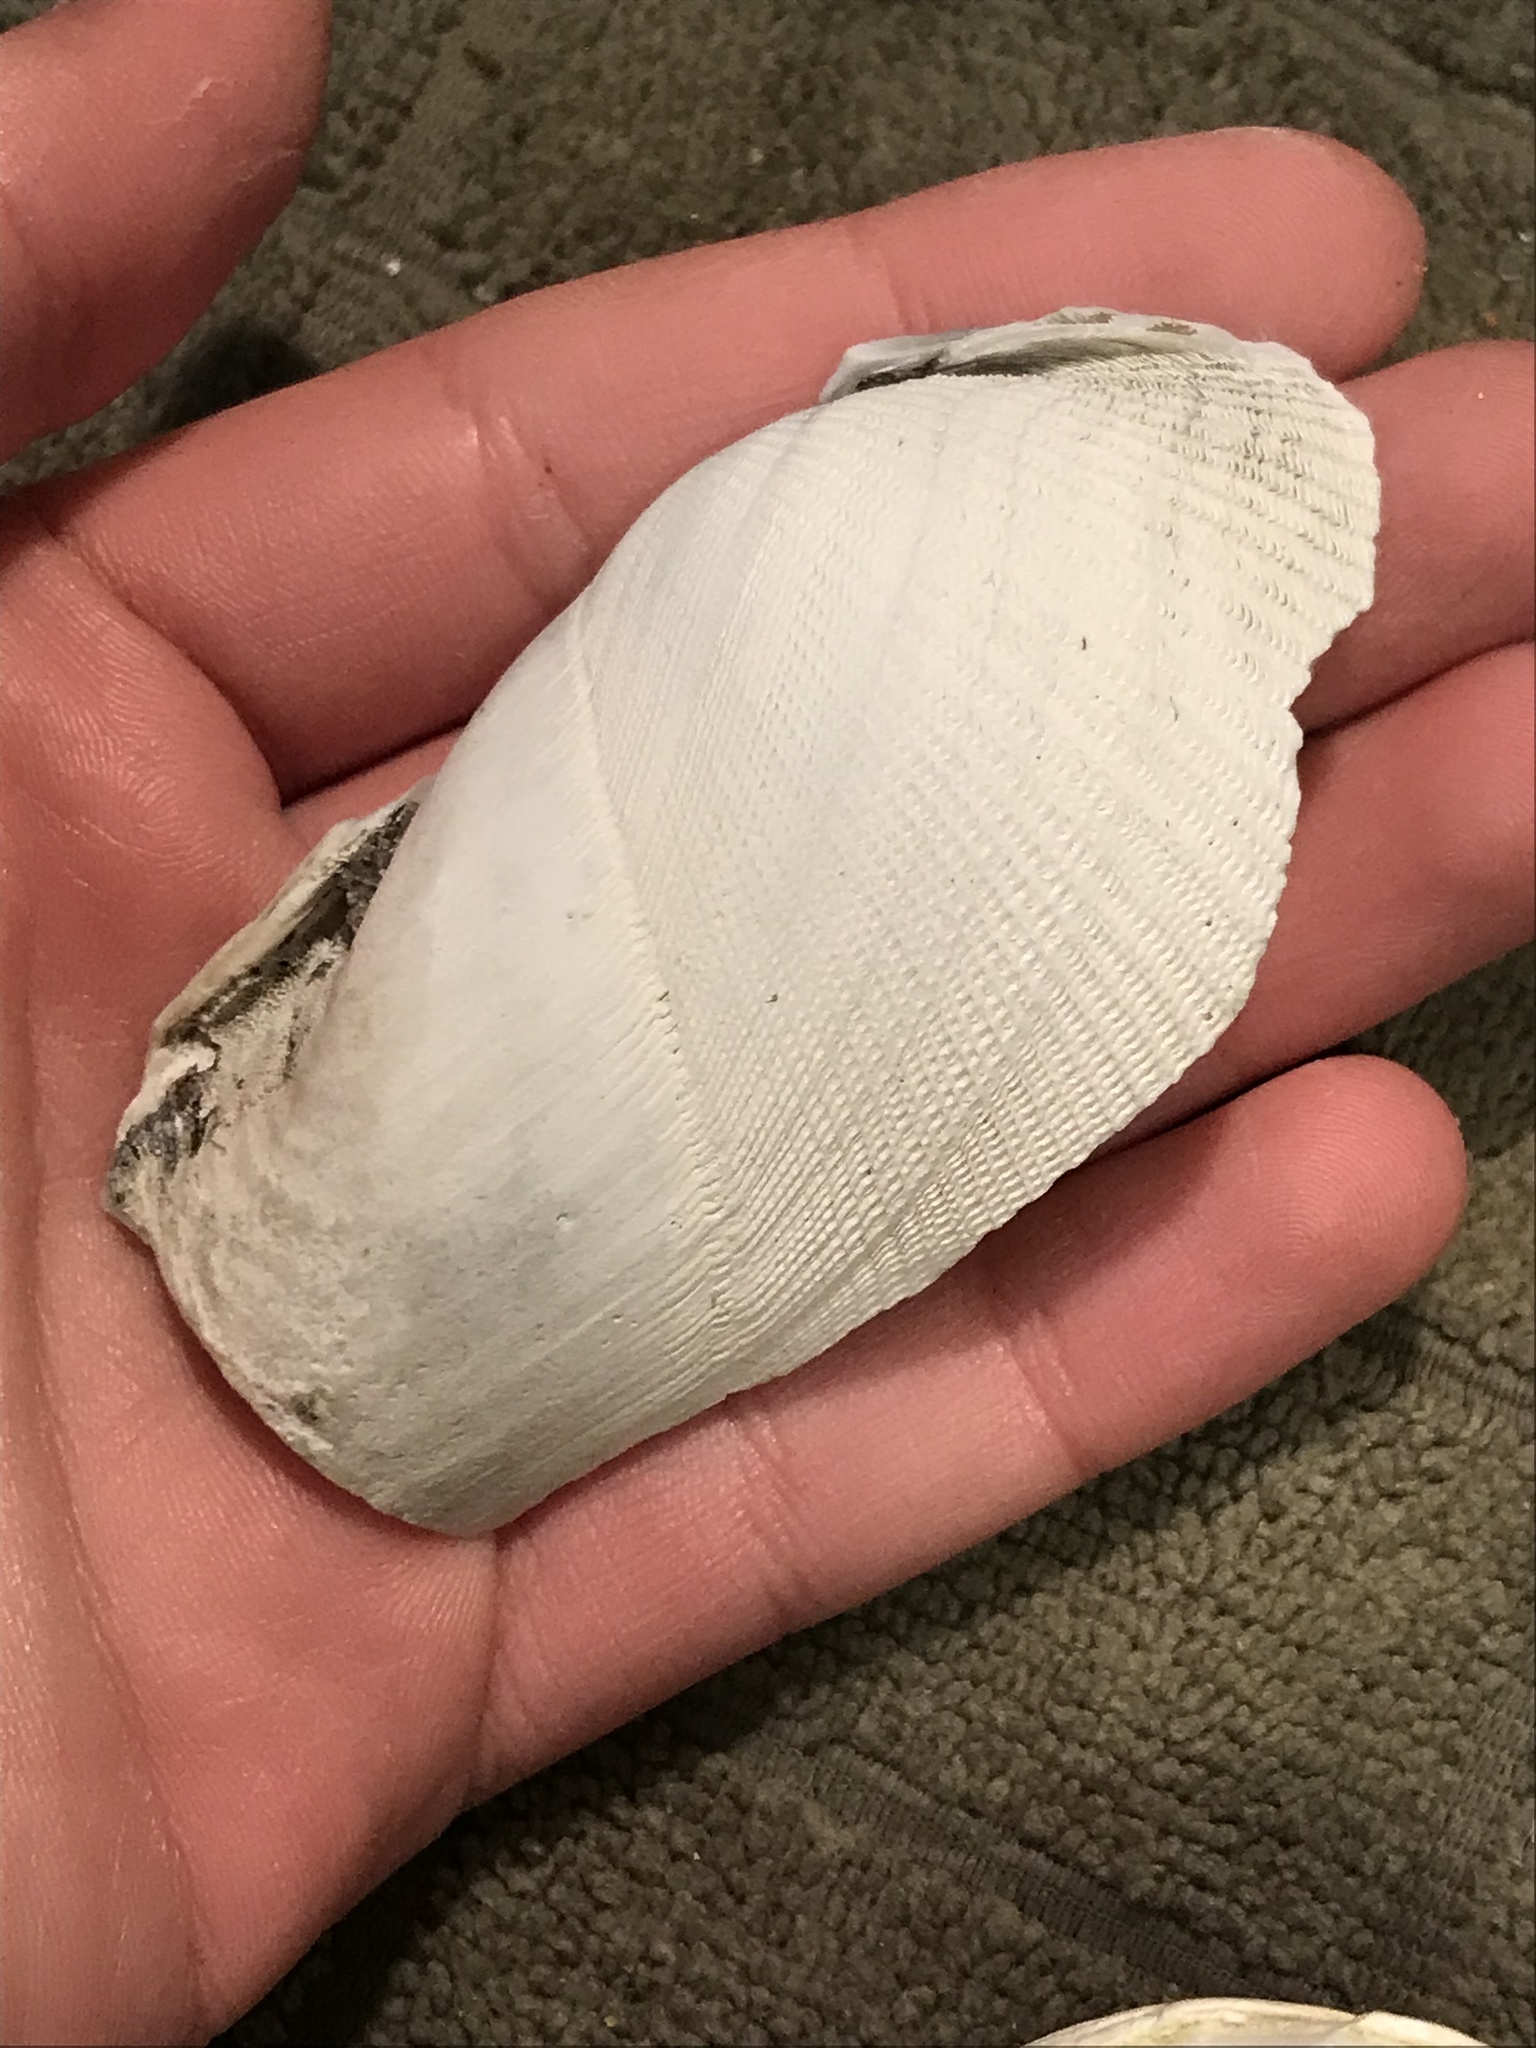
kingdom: Animalia
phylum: Mollusca
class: Bivalvia
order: Myida
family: Pholadidae
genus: Parapholas
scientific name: Parapholas californica
